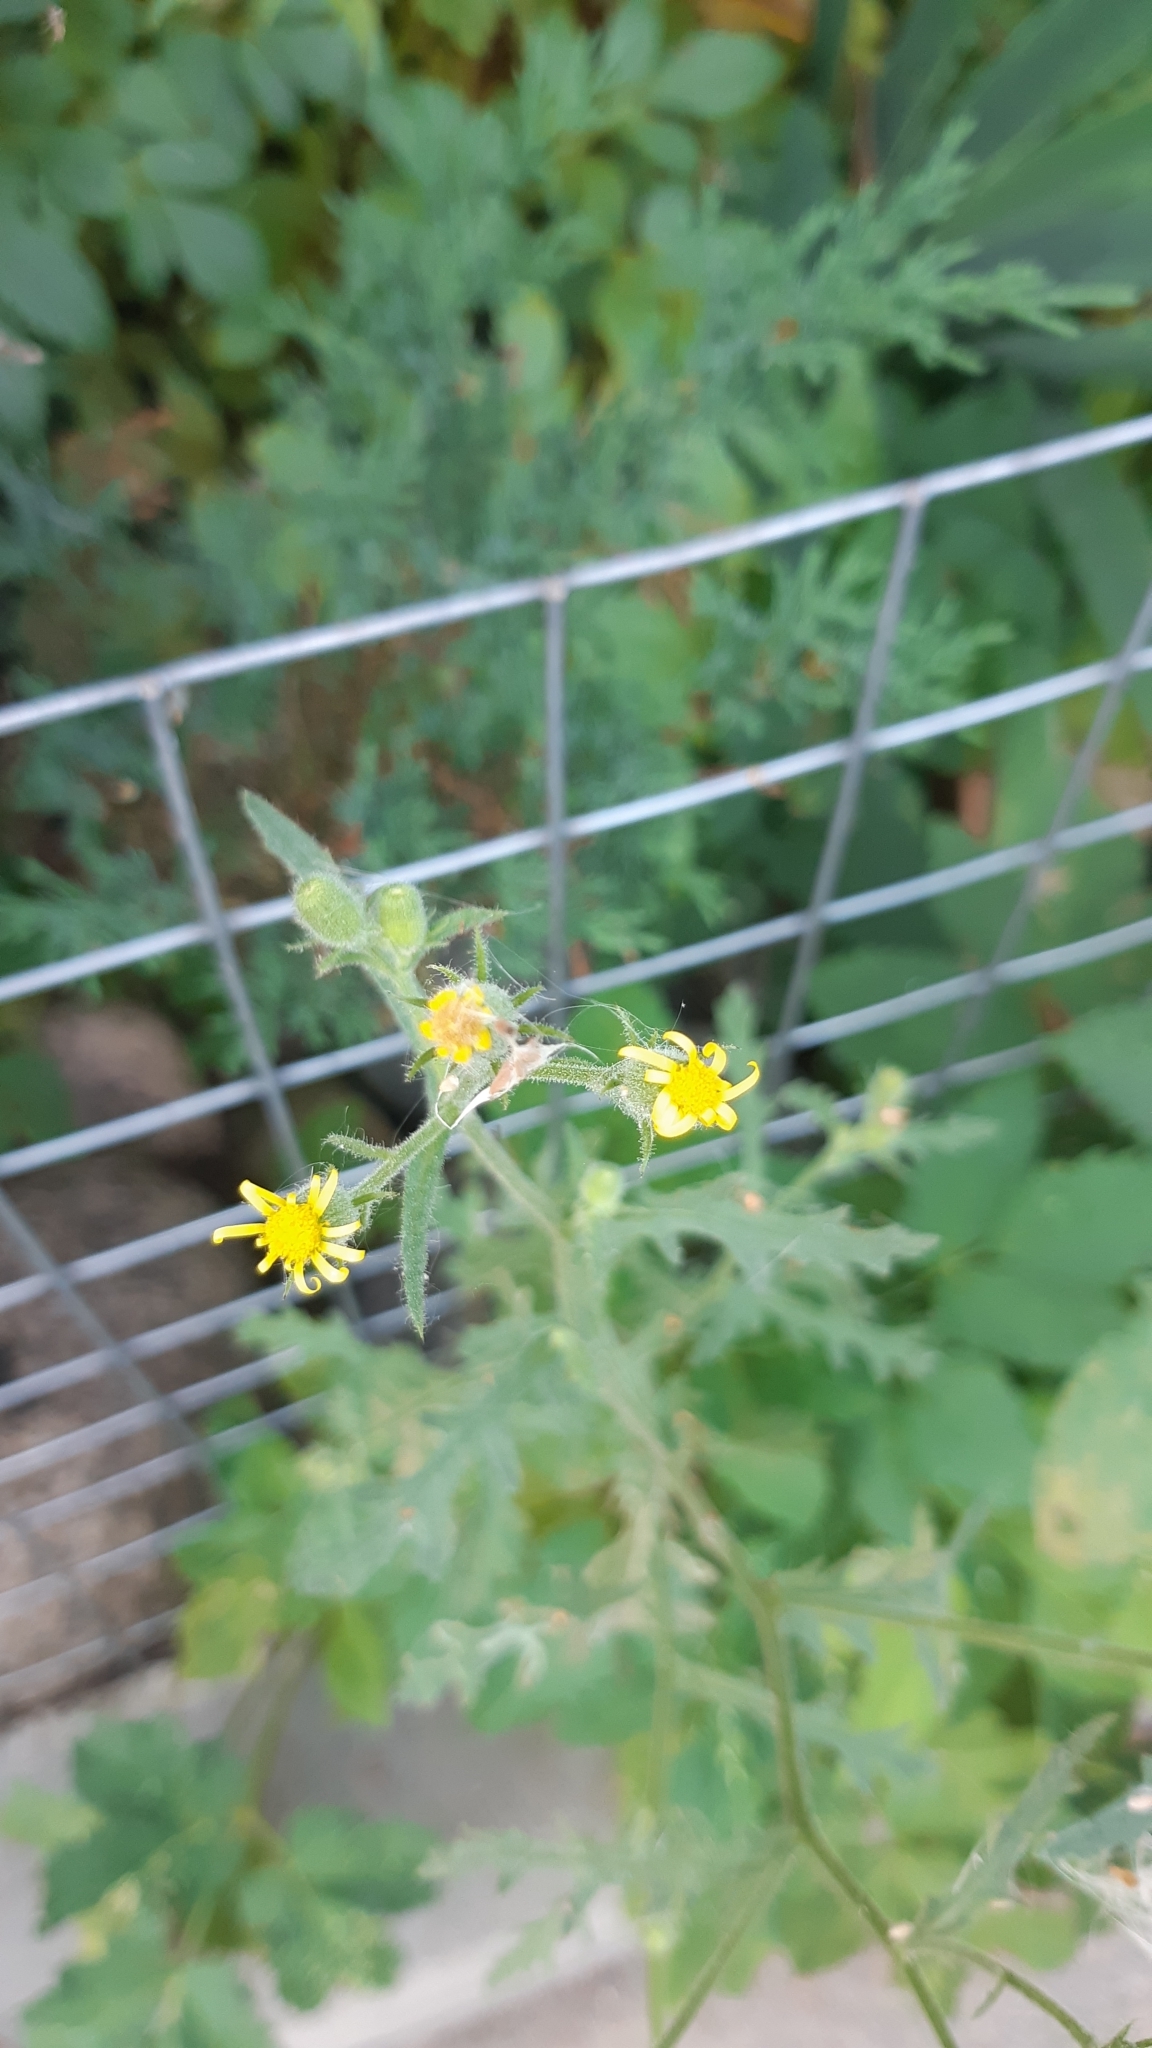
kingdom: Plantae
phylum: Tracheophyta
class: Magnoliopsida
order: Asterales
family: Asteraceae
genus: Senecio
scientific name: Senecio viscosus
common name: Sticky groundsel
